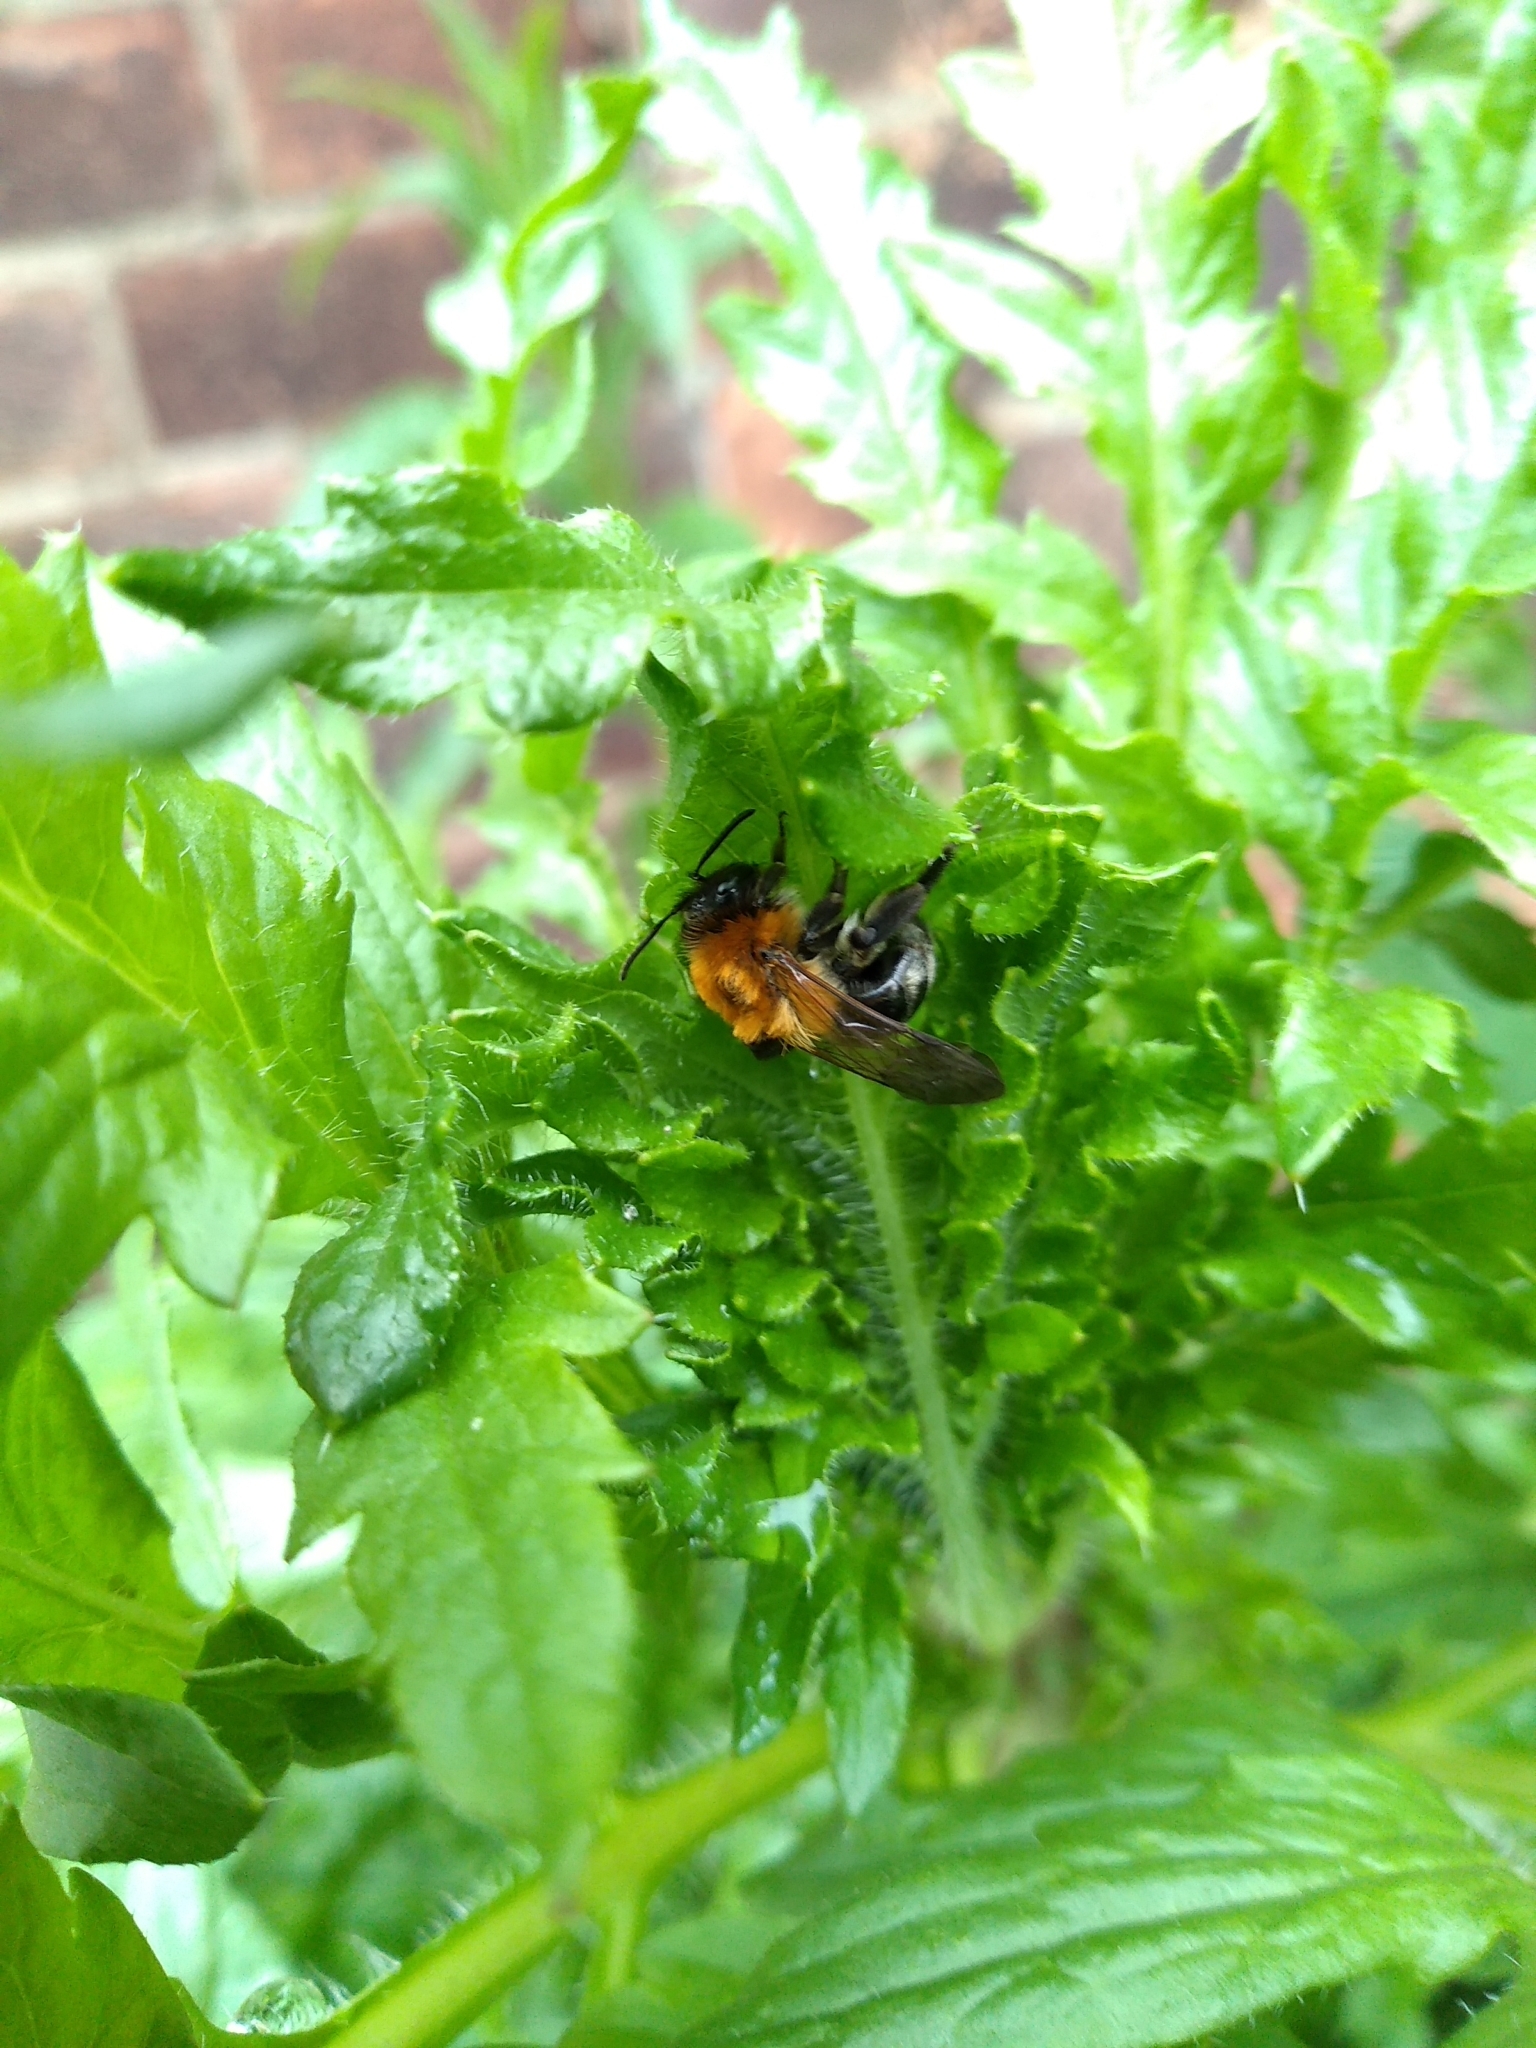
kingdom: Animalia
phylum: Arthropoda
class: Insecta
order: Hymenoptera
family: Andrenidae
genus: Andrena
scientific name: Andrena nitida
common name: Grey-patched mining bee
